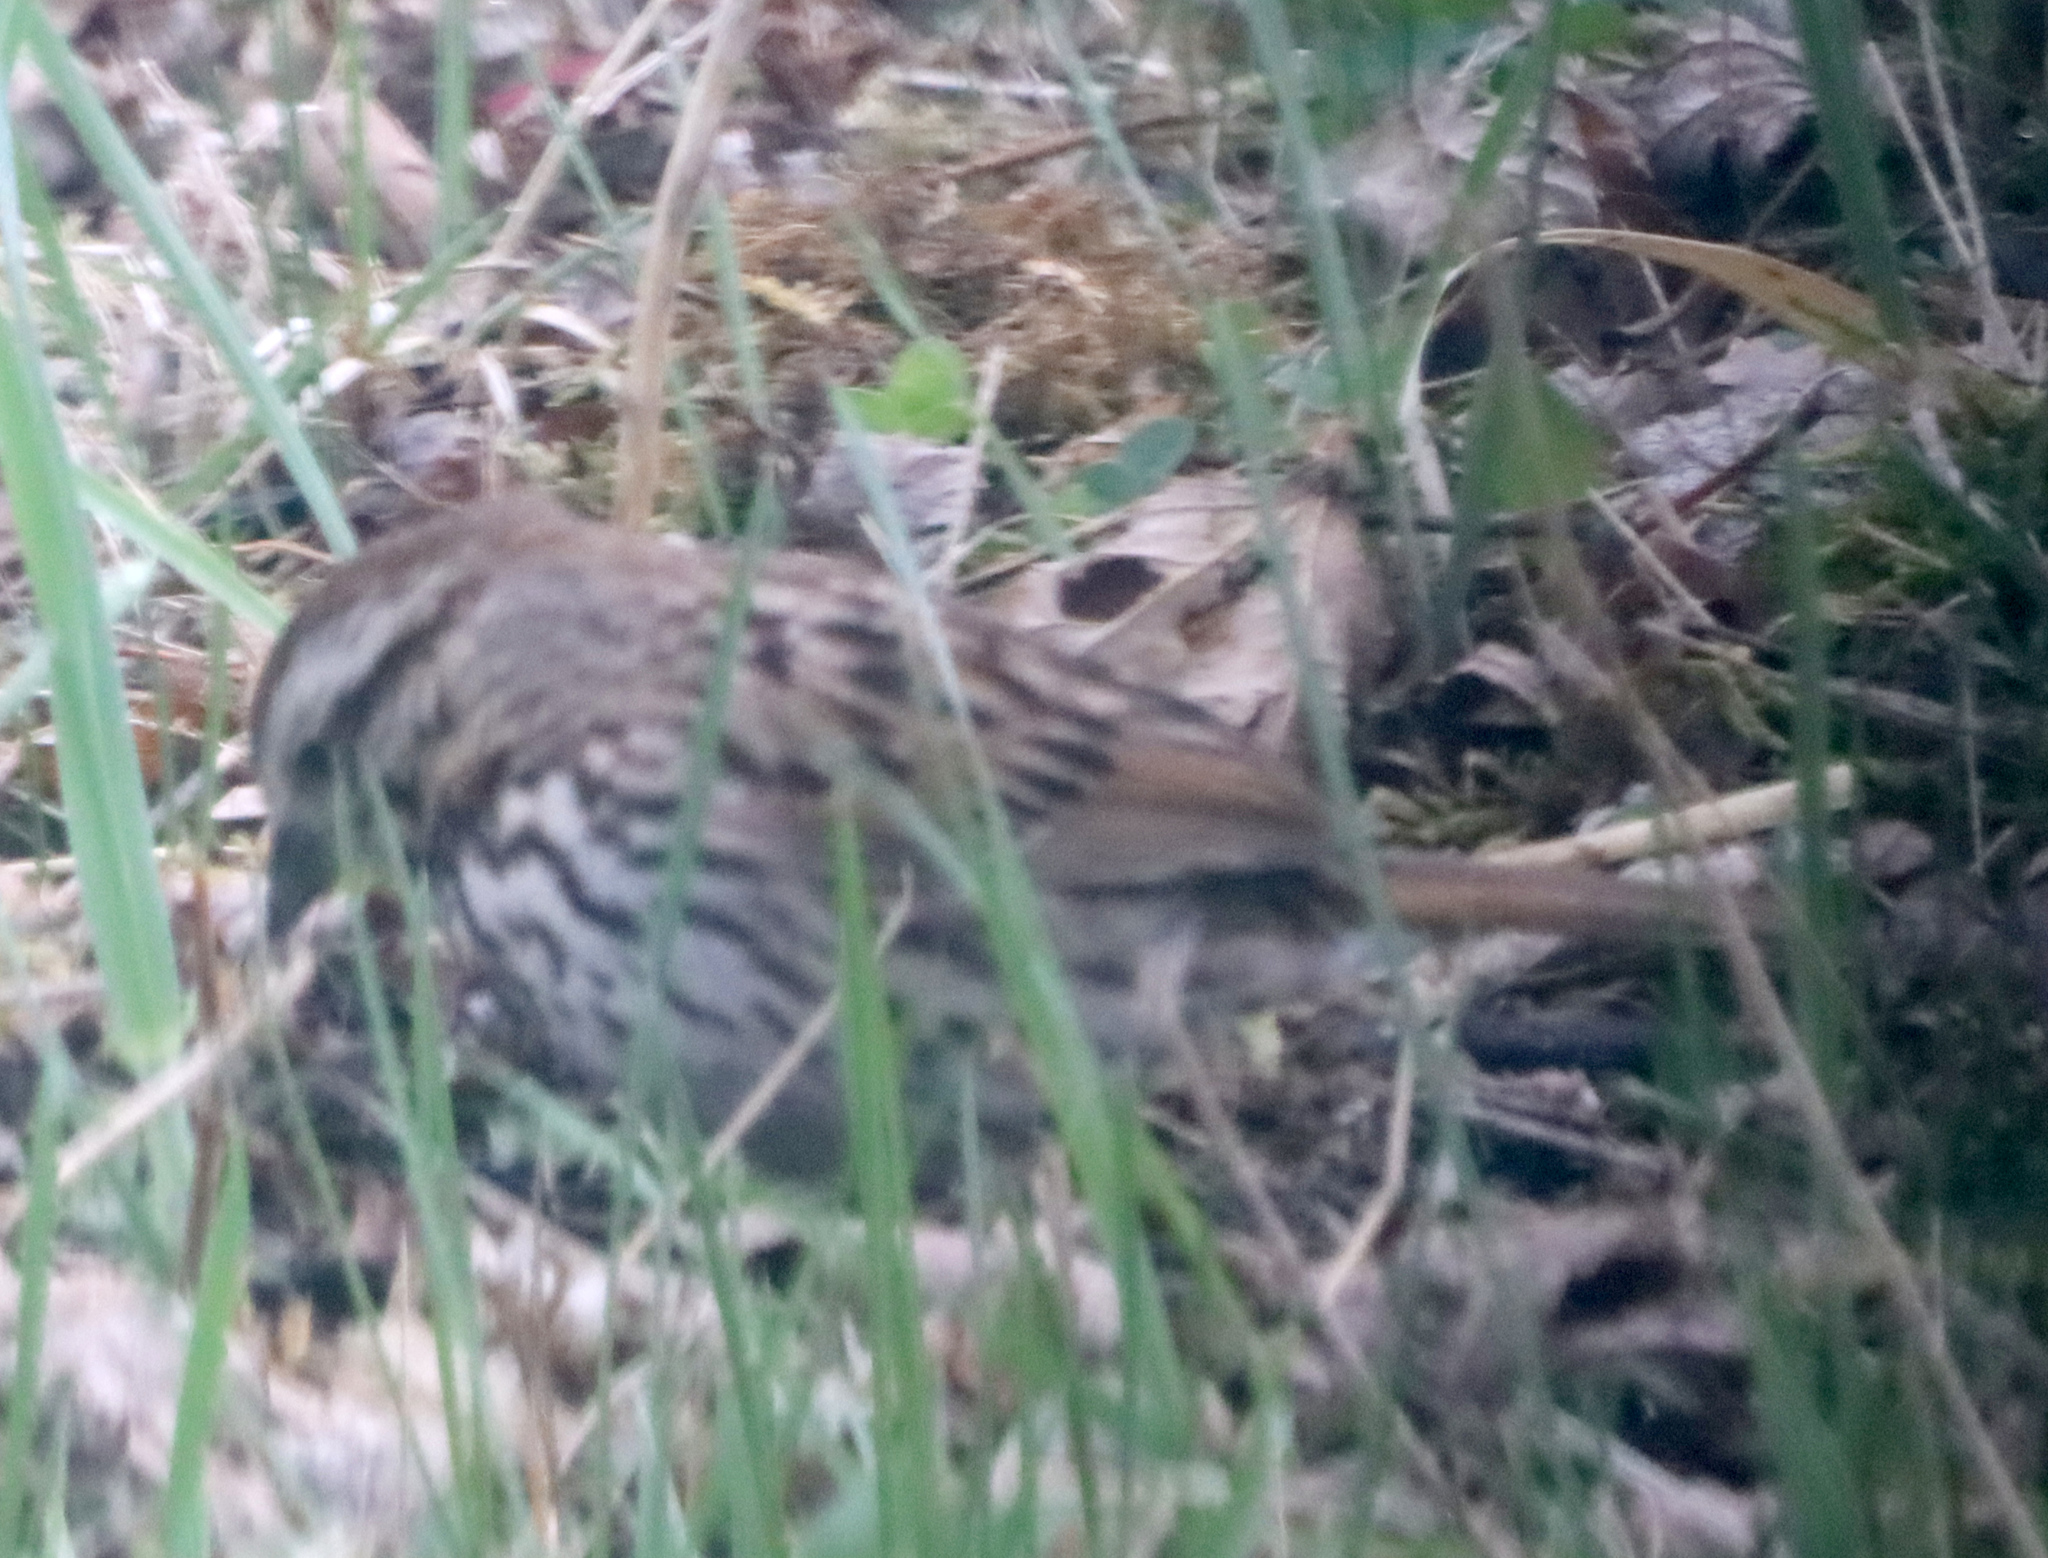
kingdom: Animalia
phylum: Chordata
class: Aves
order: Passeriformes
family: Passerellidae
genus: Melospiza
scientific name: Melospiza melodia
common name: Song sparrow
